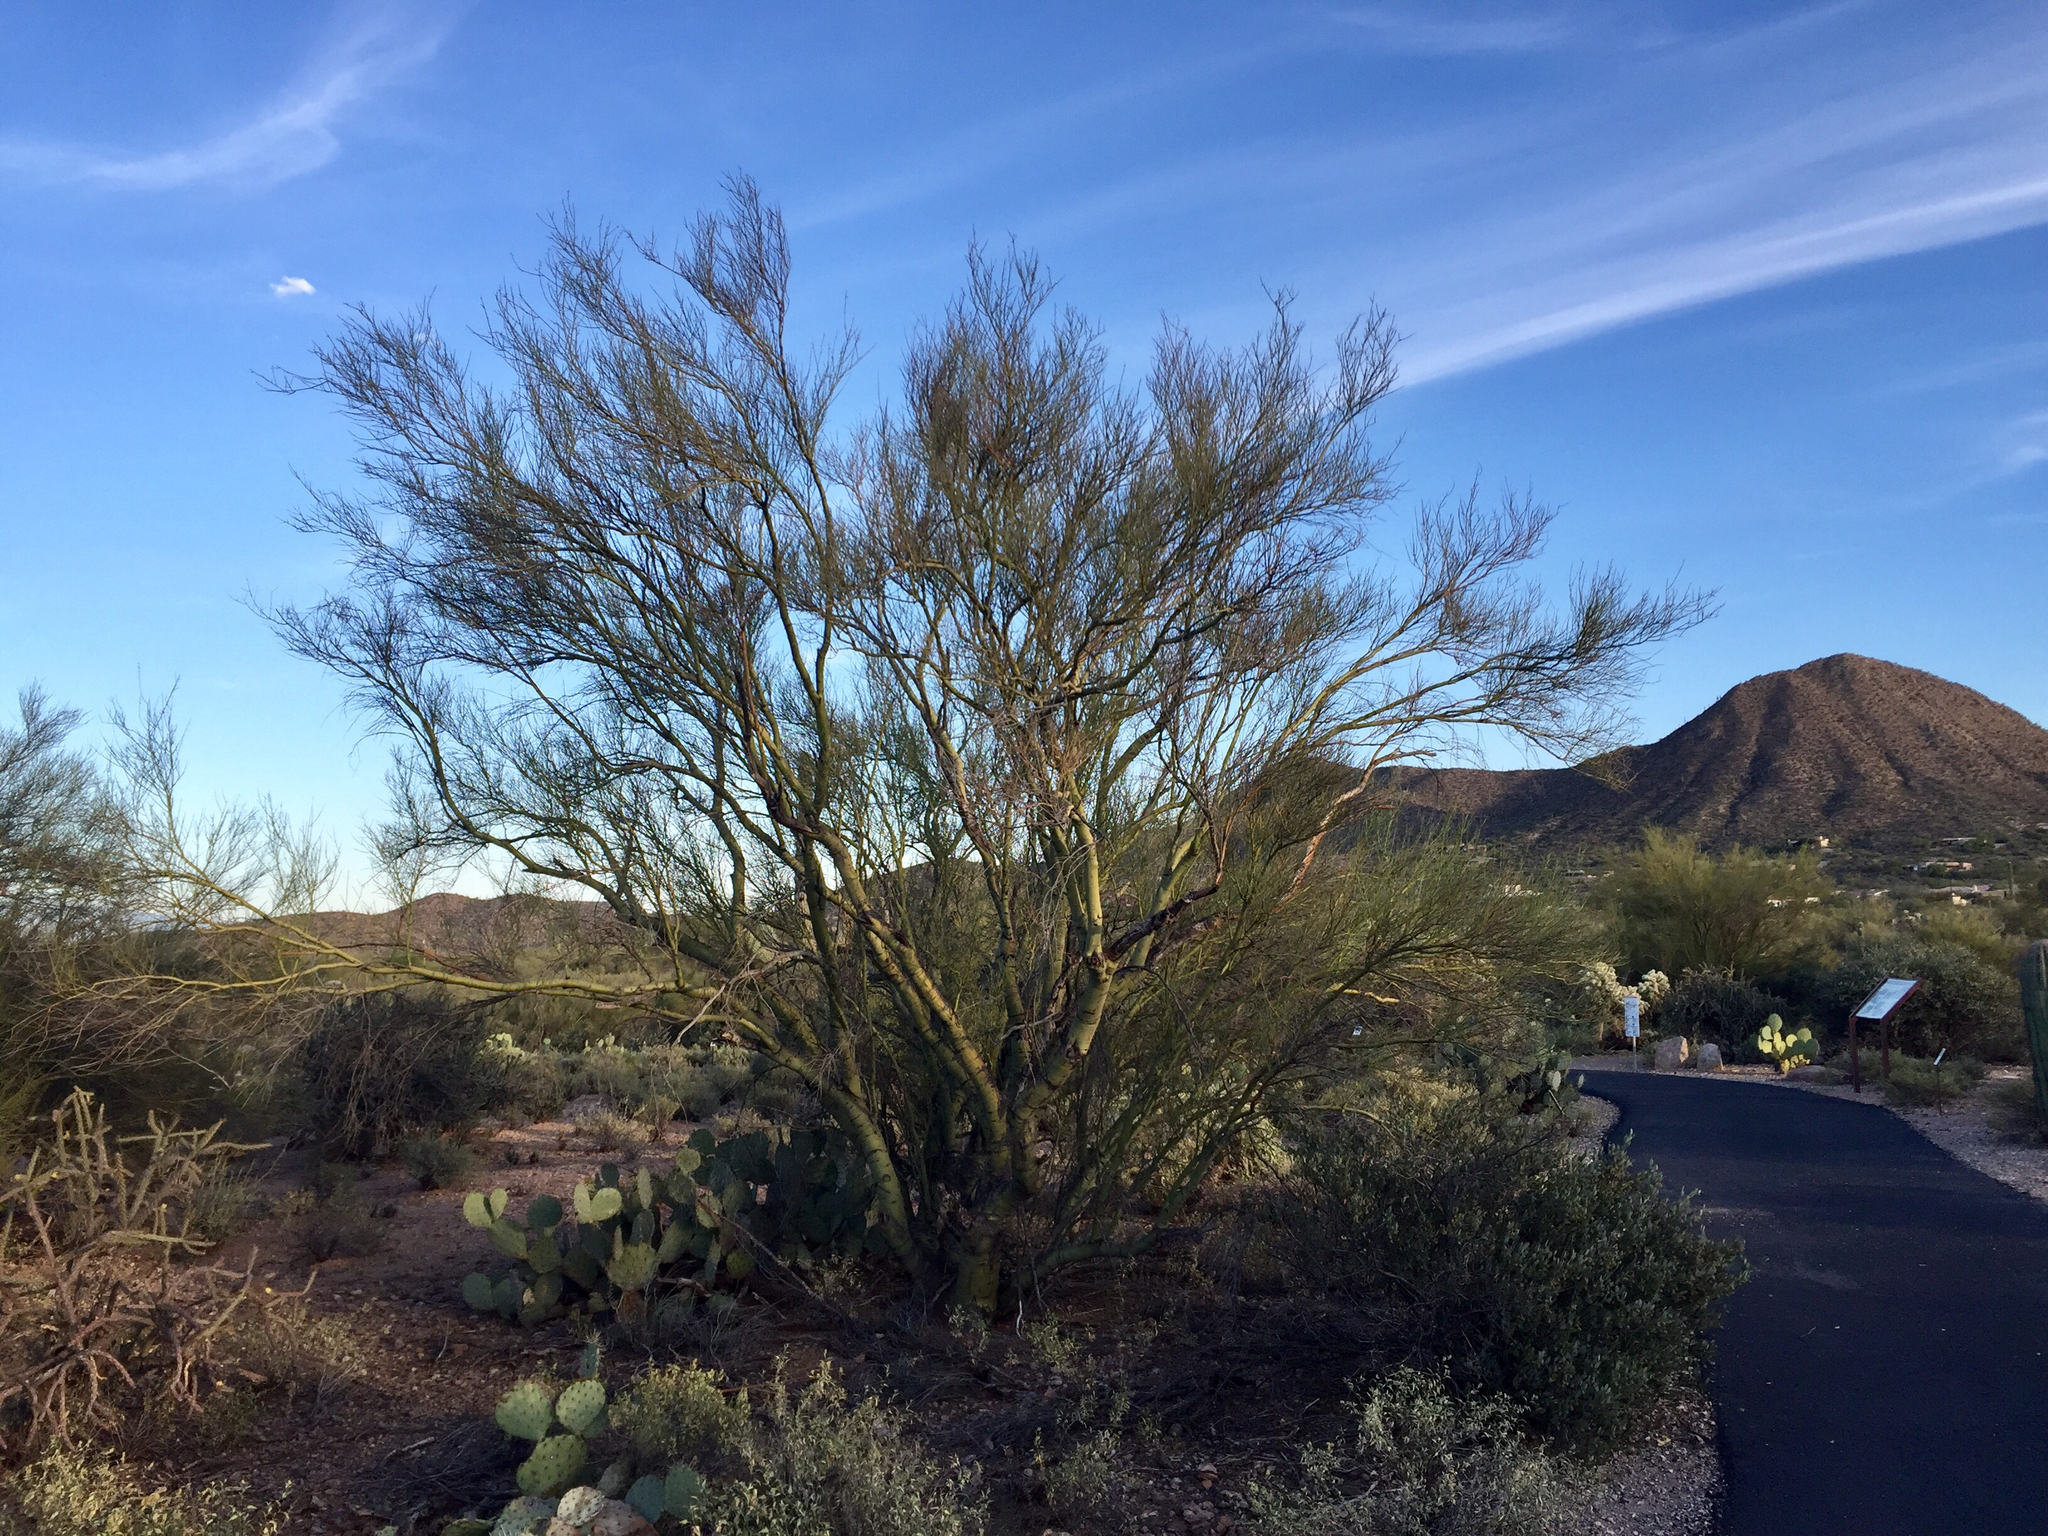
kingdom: Plantae
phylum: Tracheophyta
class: Magnoliopsida
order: Fabales
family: Fabaceae
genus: Parkinsonia
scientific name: Parkinsonia microphylla
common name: Yellow paloverde
